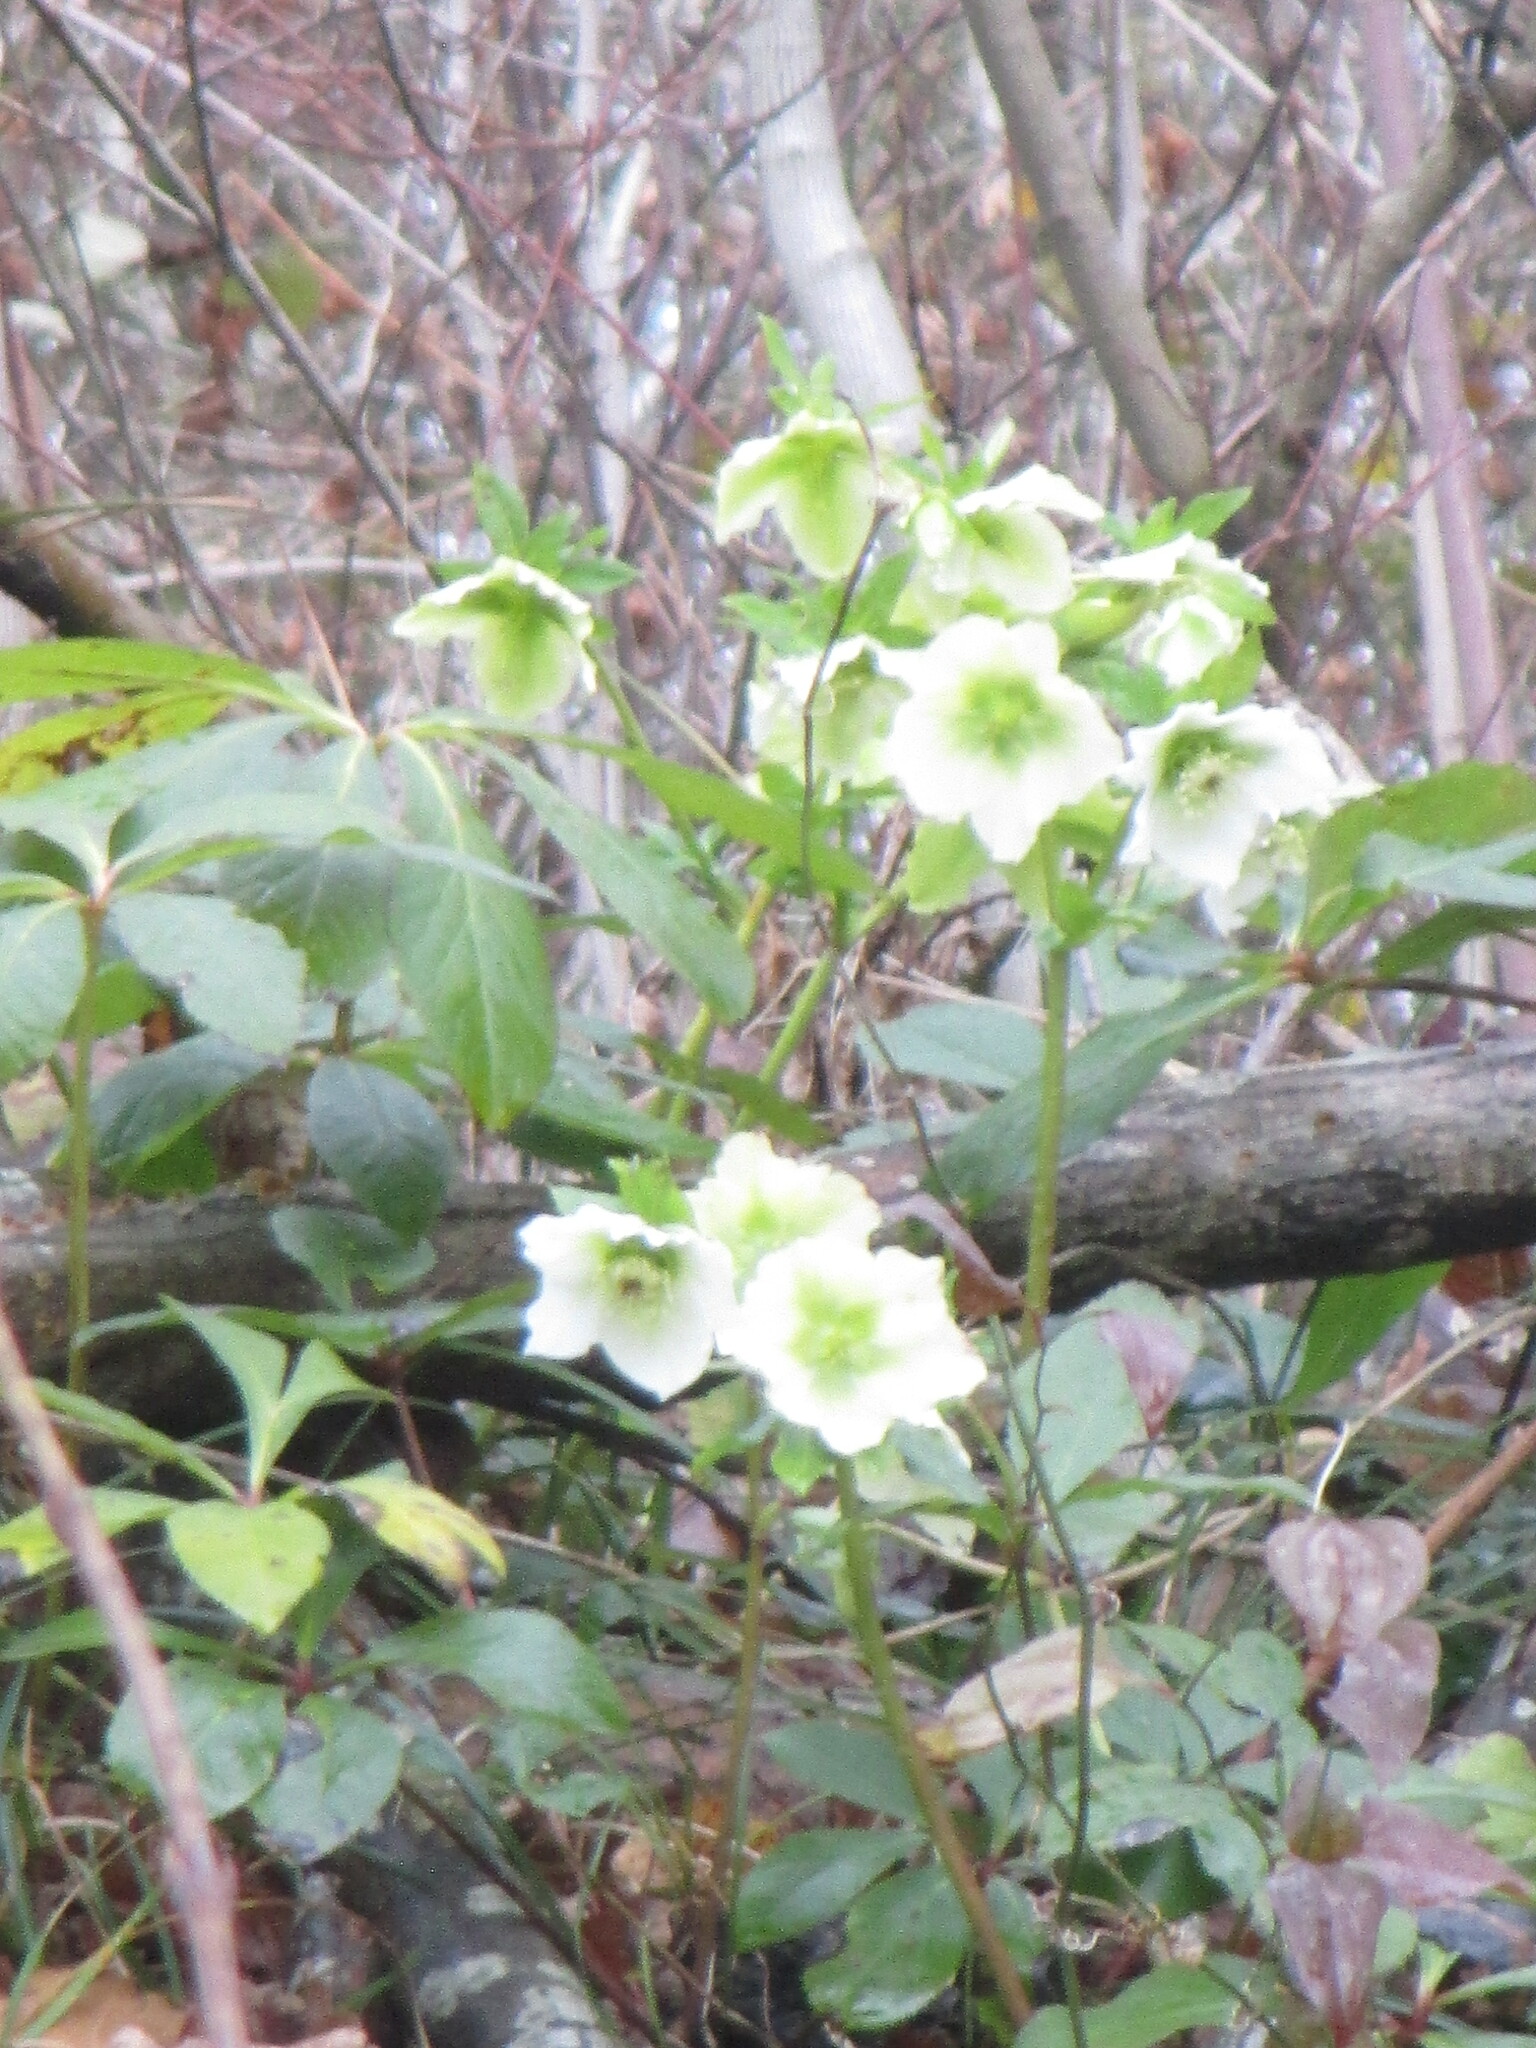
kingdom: Plantae
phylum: Tracheophyta
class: Magnoliopsida
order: Ranunculales
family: Ranunculaceae
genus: Helleborus
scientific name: Helleborus orientalis
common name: Lenten-rose
